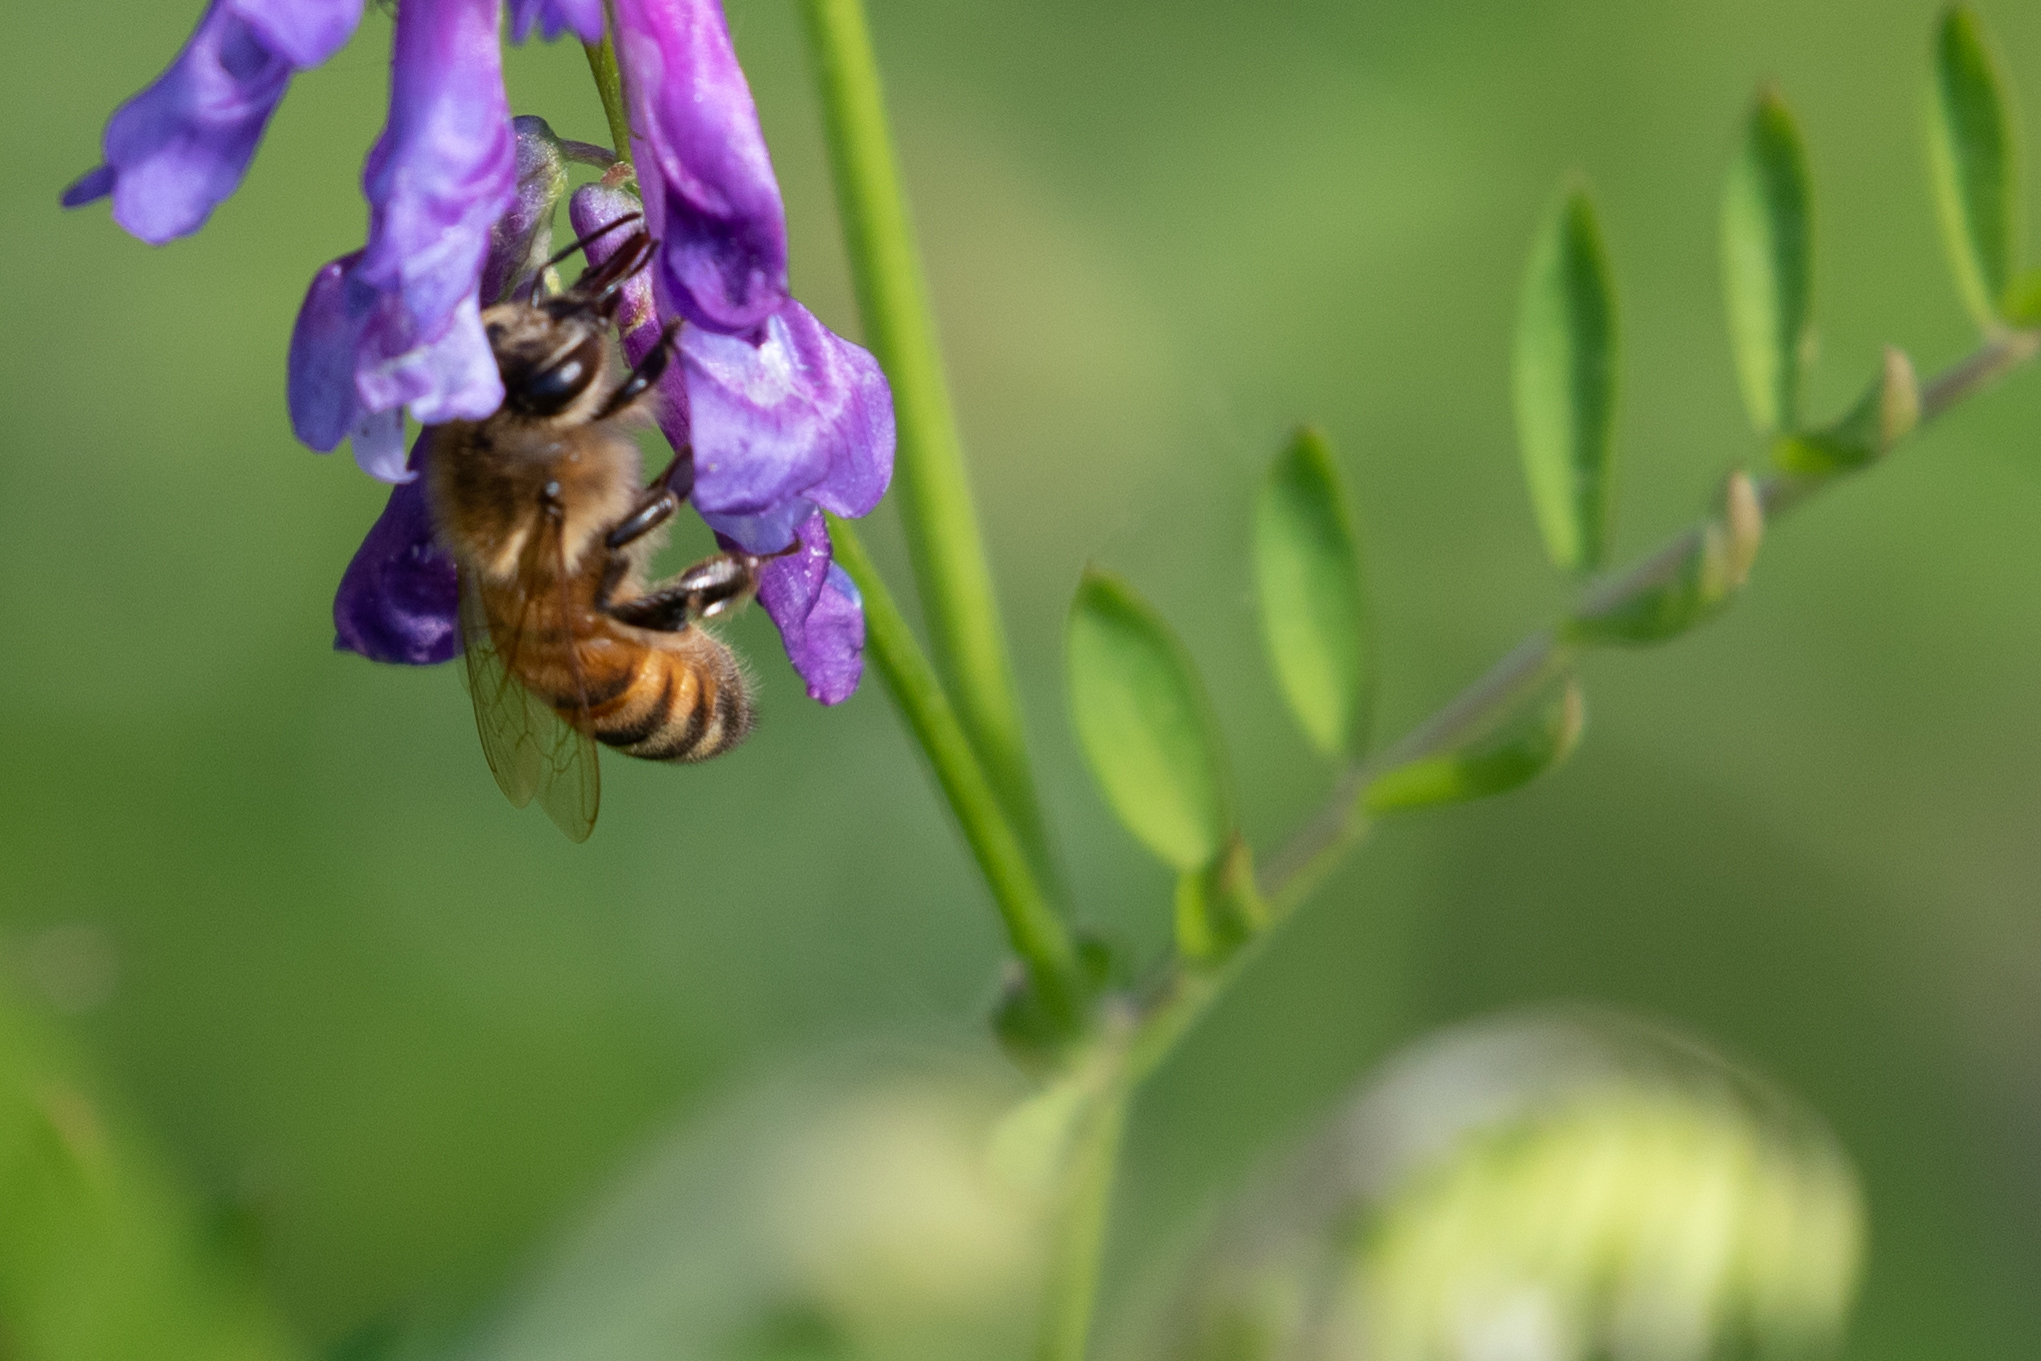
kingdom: Animalia
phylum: Arthropoda
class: Insecta
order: Hymenoptera
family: Apidae
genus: Apis
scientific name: Apis mellifera
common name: Honey bee
